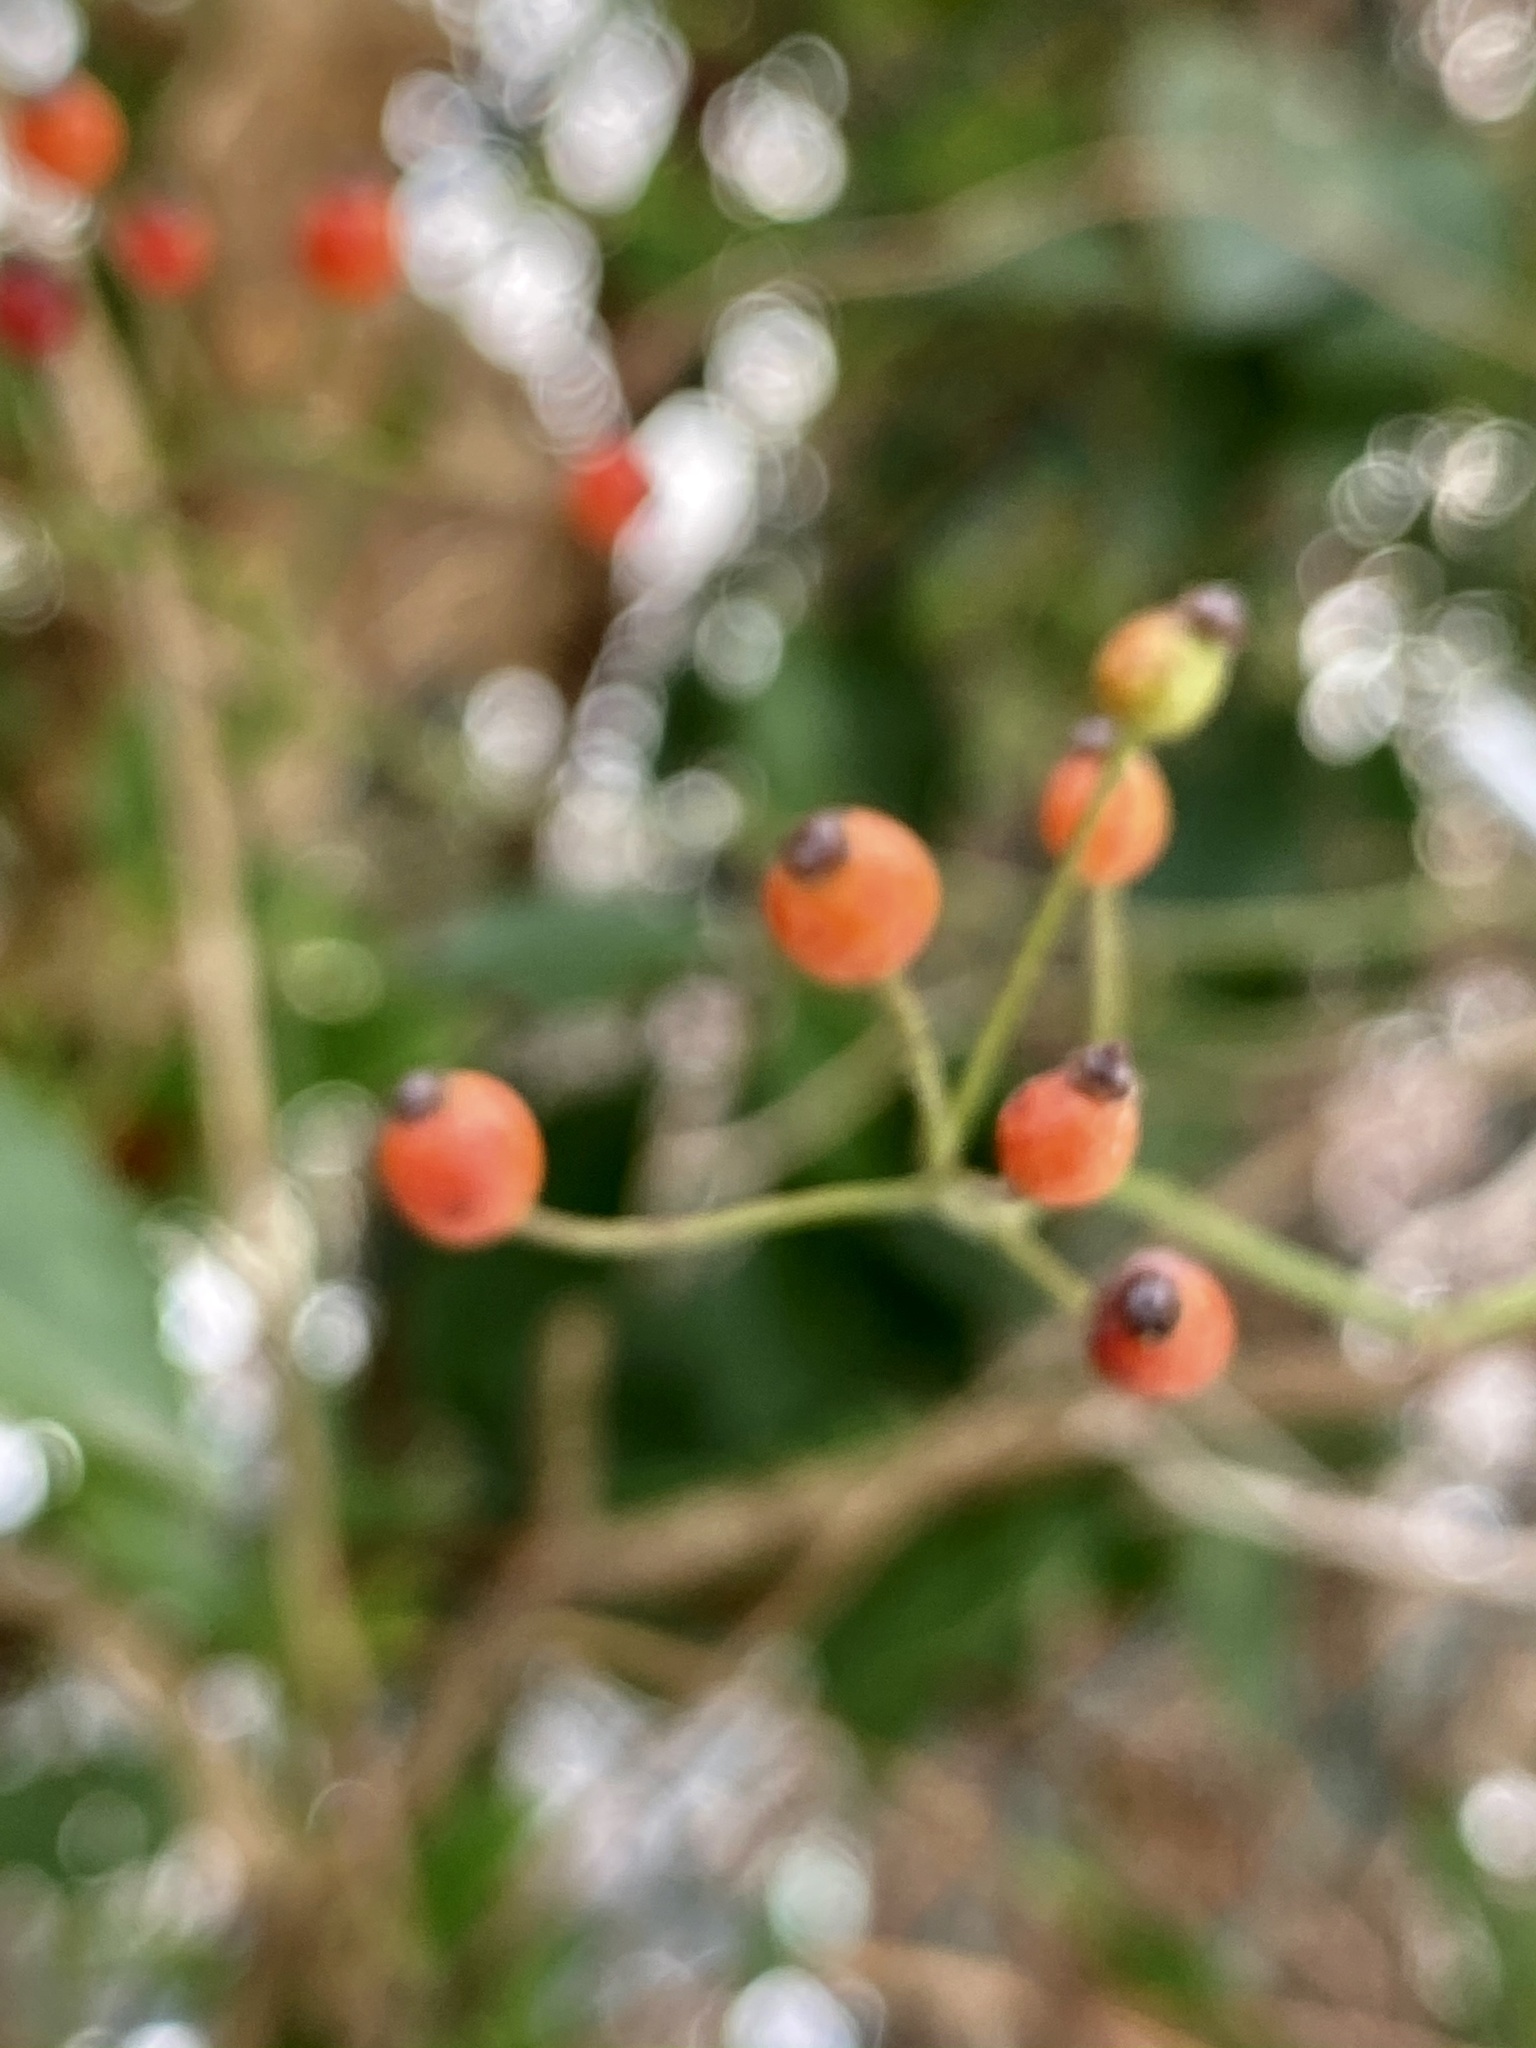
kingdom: Viruses
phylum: Negarnaviricota
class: Ellioviricetes
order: Bunyavirales
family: Fimoviridae
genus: Emaravirus
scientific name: Emaravirus rosae
